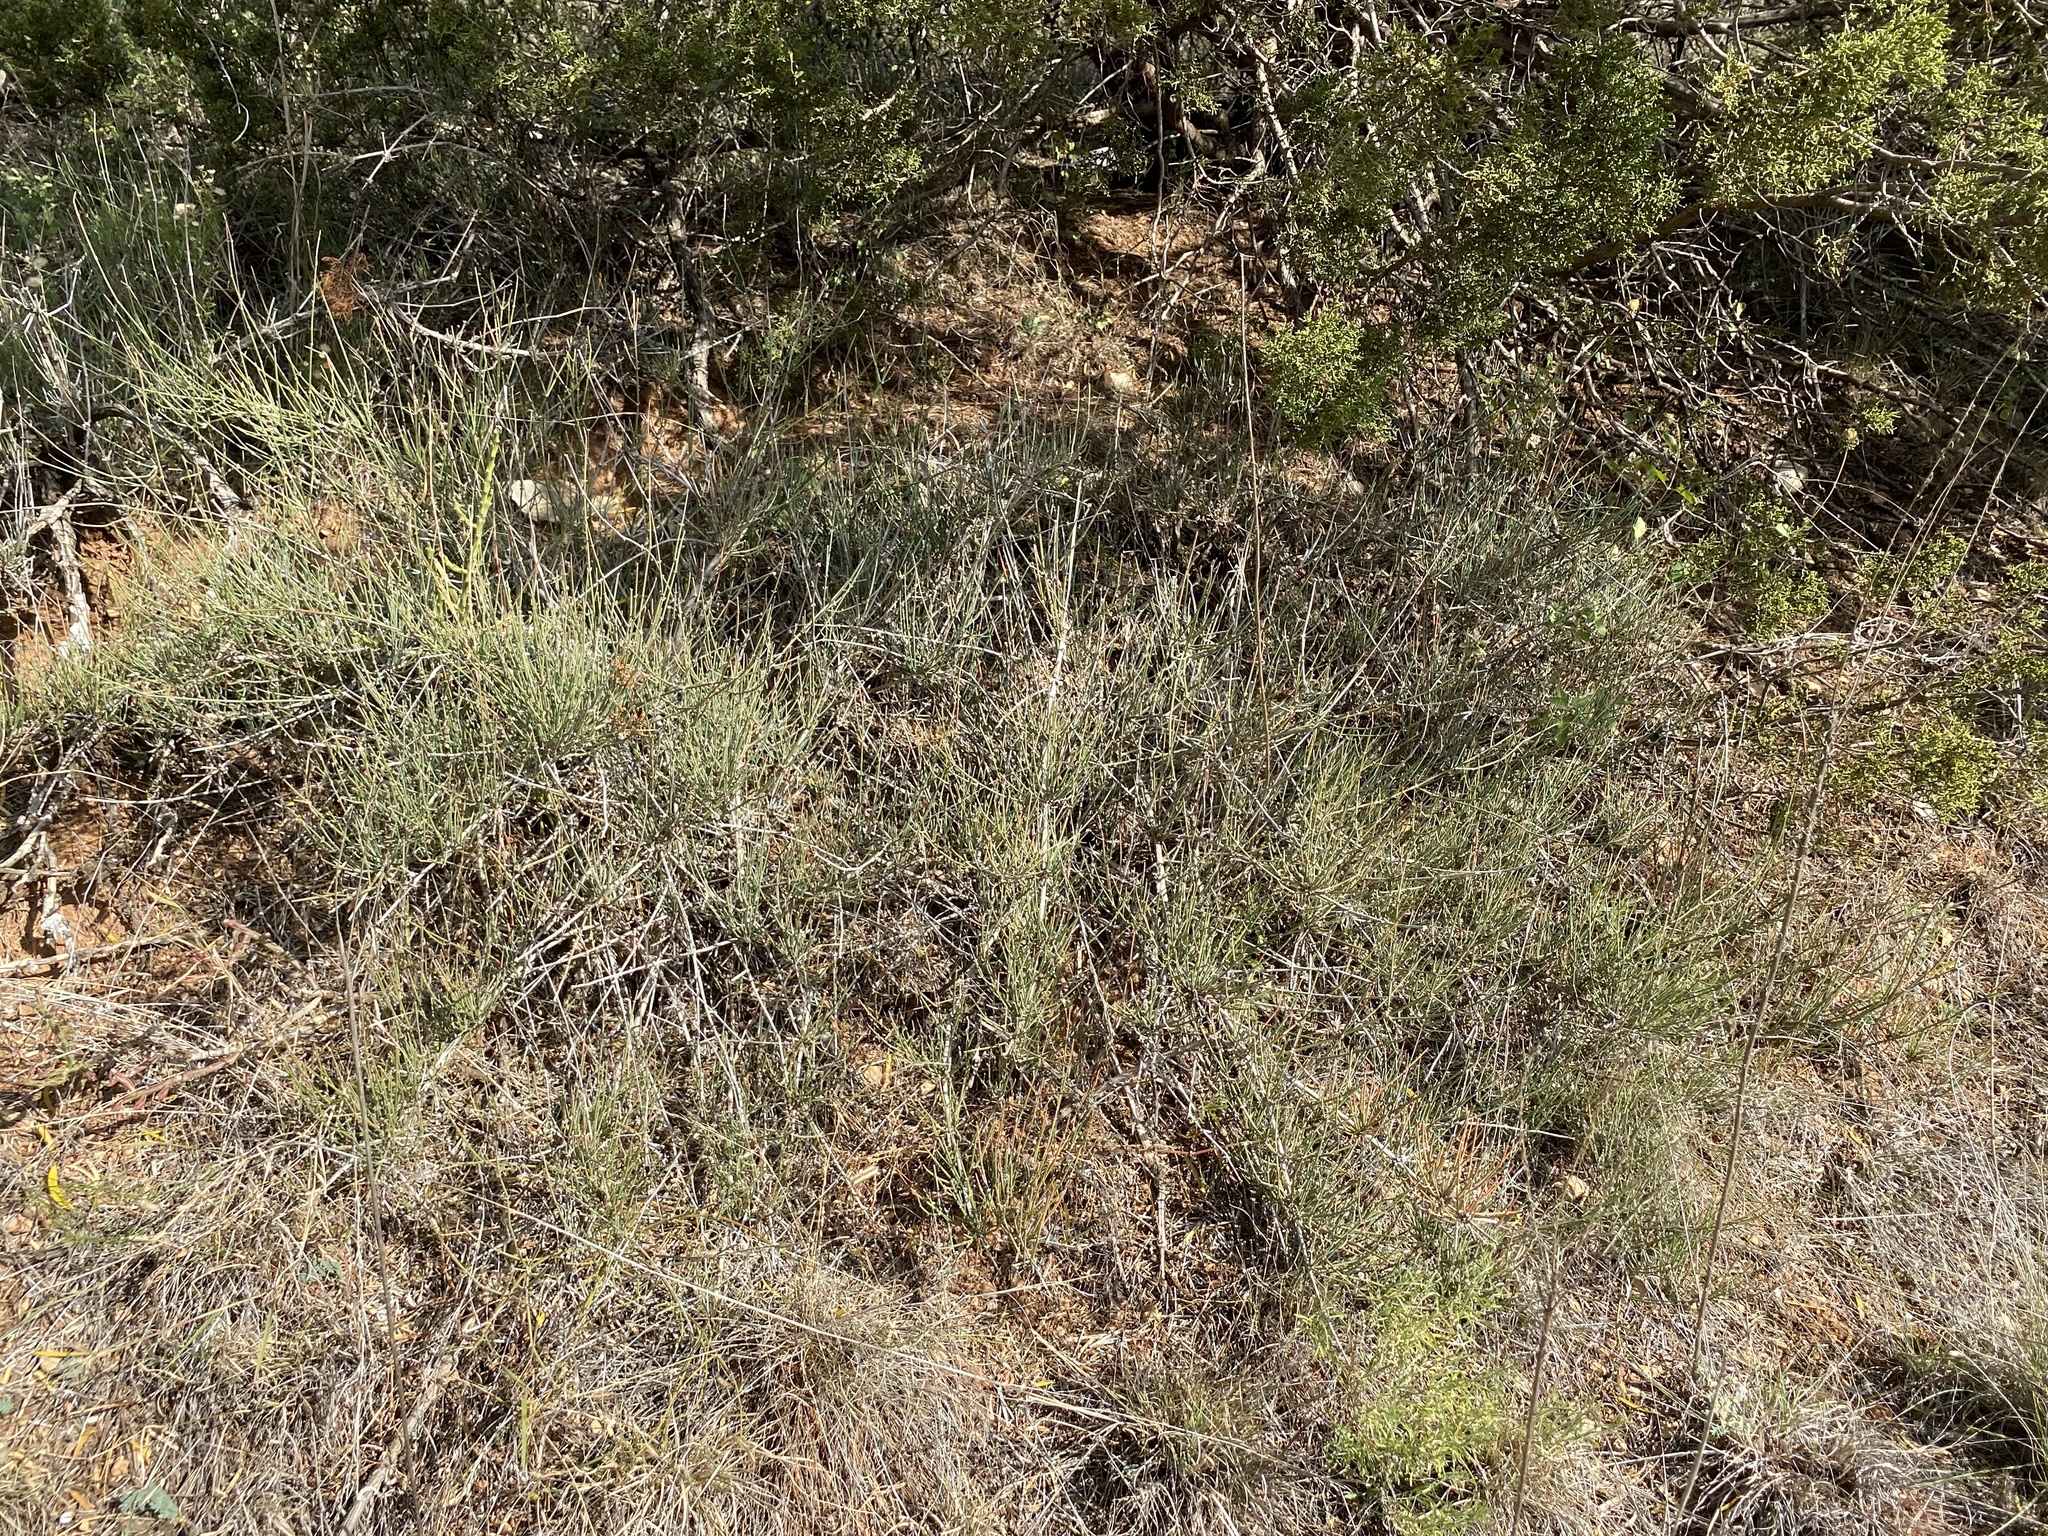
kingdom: Plantae
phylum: Tracheophyta
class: Gnetopsida
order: Ephedrales
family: Ephedraceae
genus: Ephedra
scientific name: Ephedra antisyphilitica
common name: Clipweed
